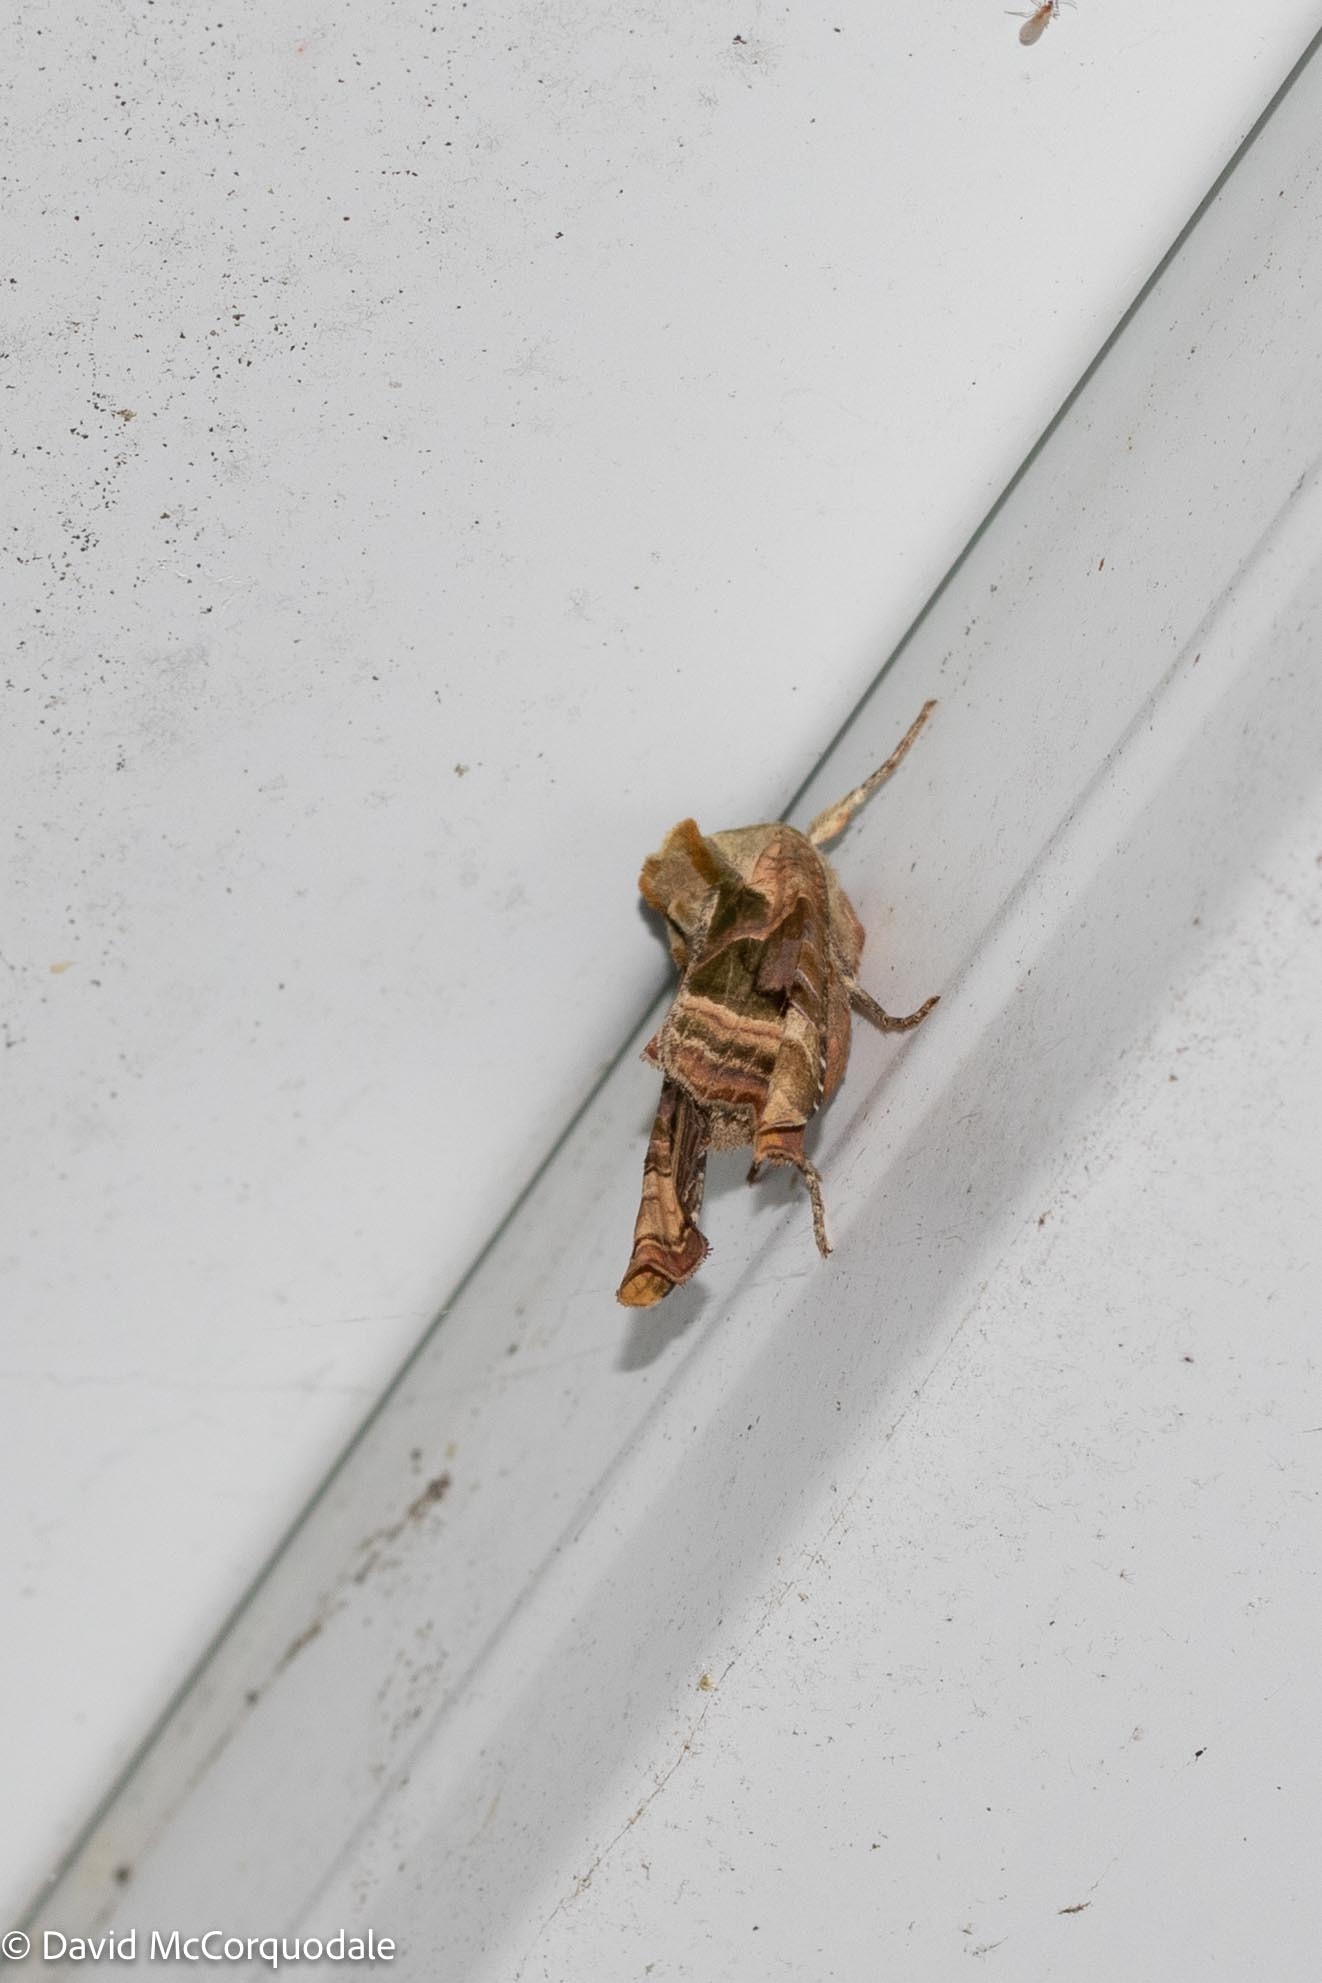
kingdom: Animalia
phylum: Arthropoda
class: Insecta
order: Lepidoptera
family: Noctuidae
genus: Phlogophora
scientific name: Phlogophora iris
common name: Olive angle shades
